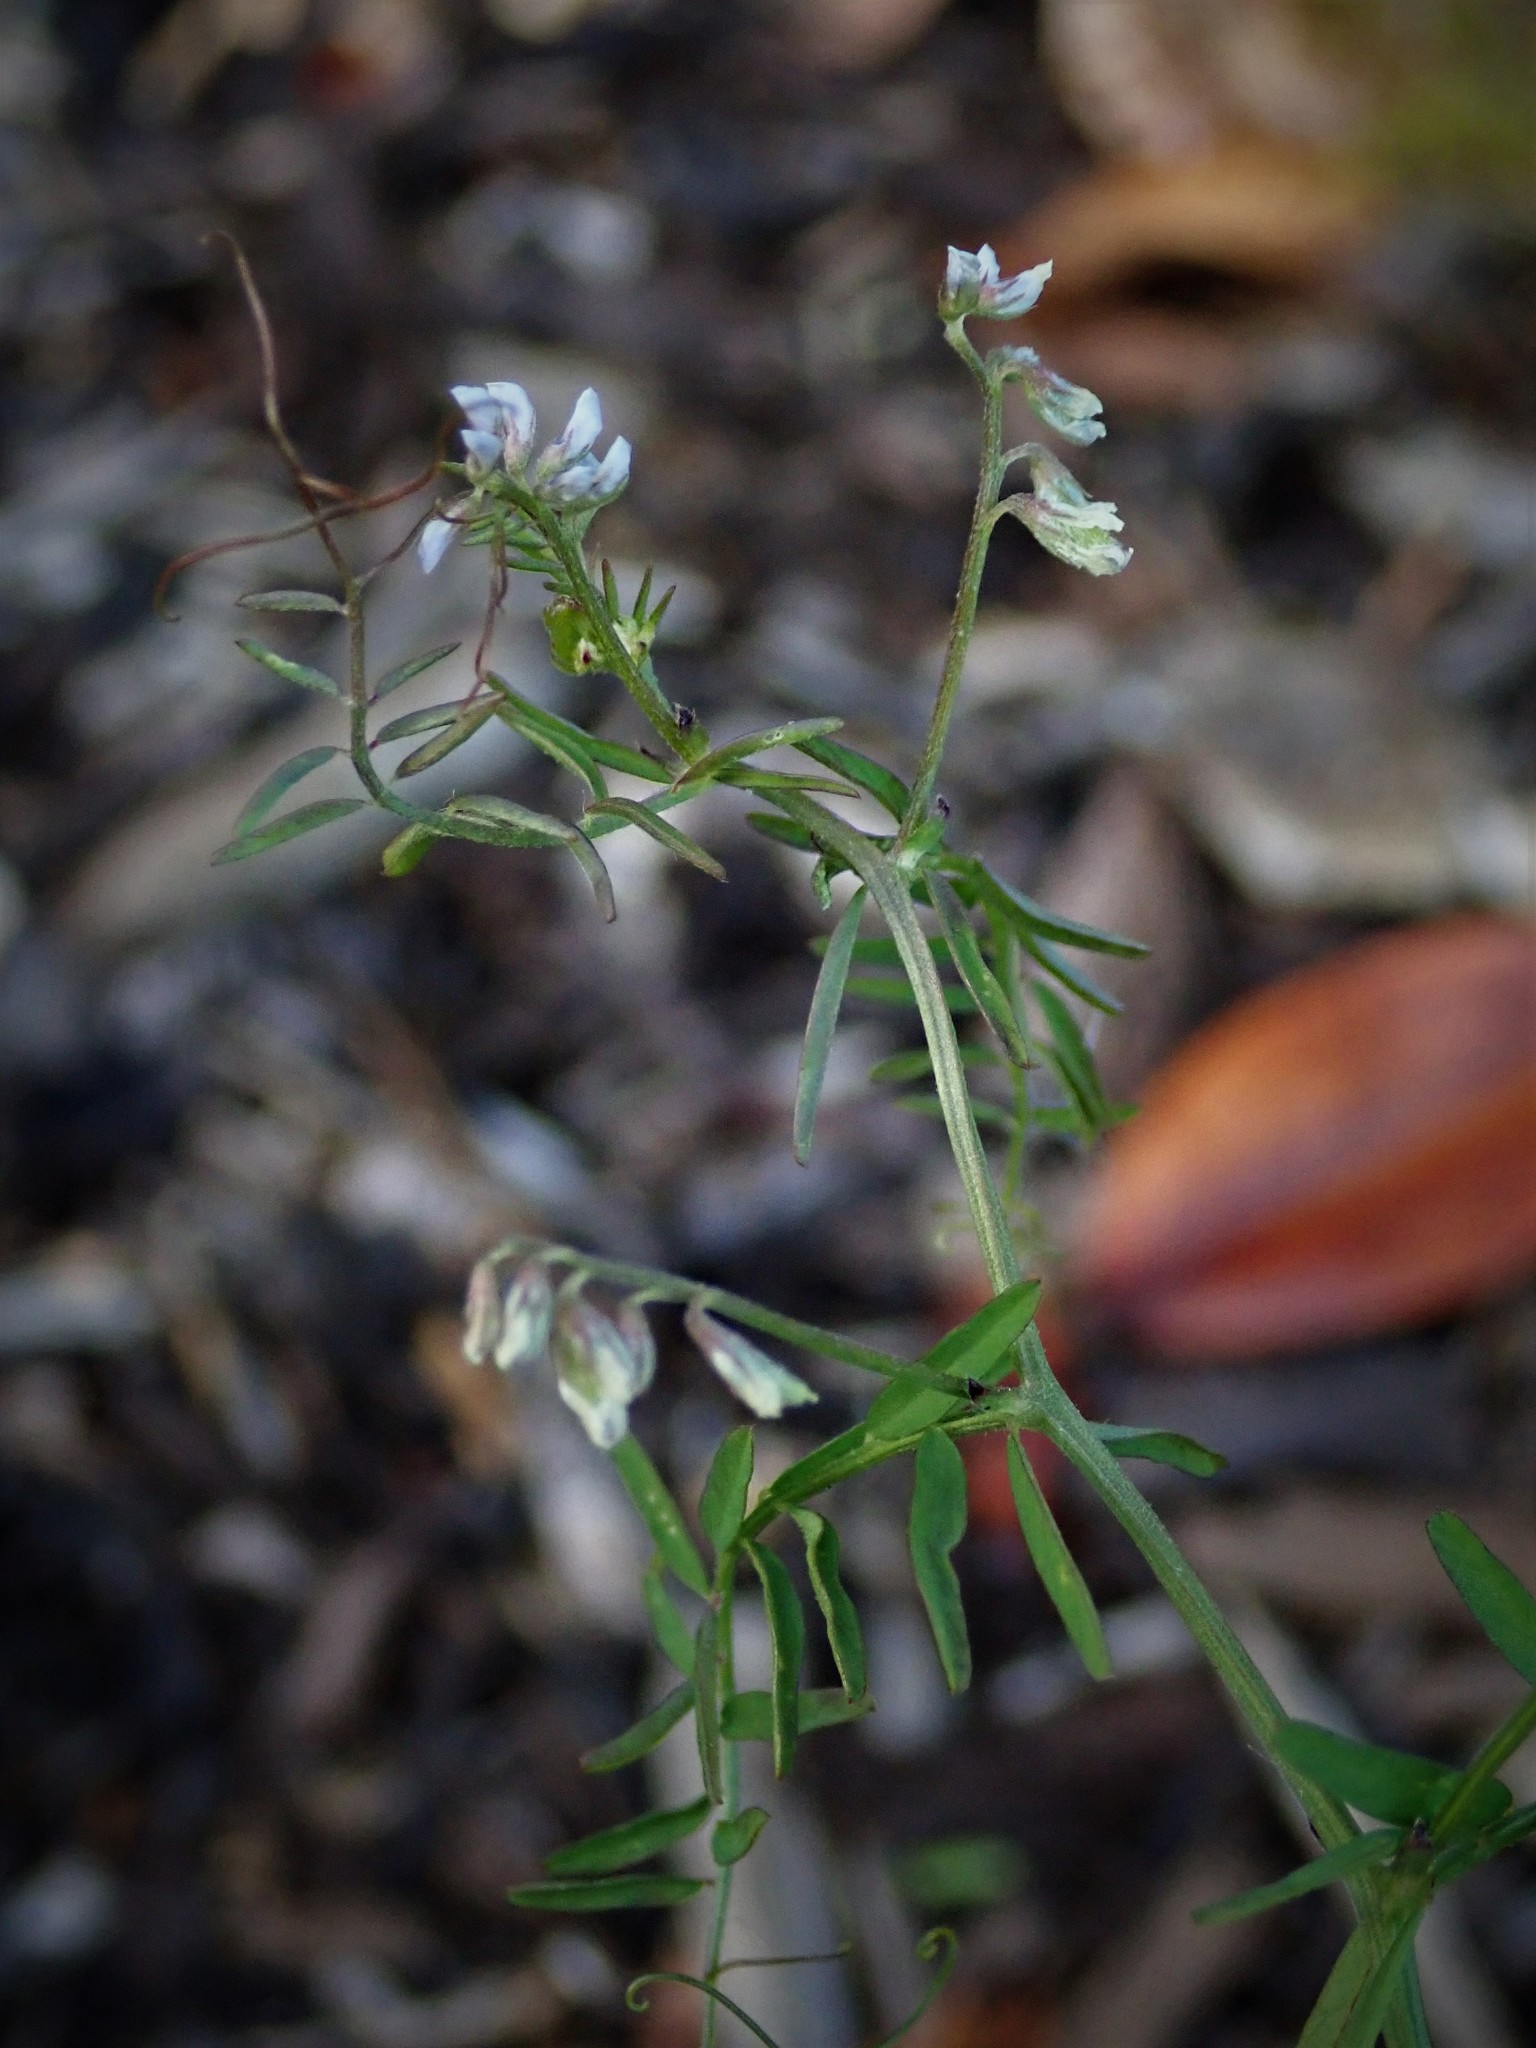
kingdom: Plantae
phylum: Tracheophyta
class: Magnoliopsida
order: Fabales
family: Fabaceae
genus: Vicia
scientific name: Vicia hirsuta
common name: Tiny vetch
